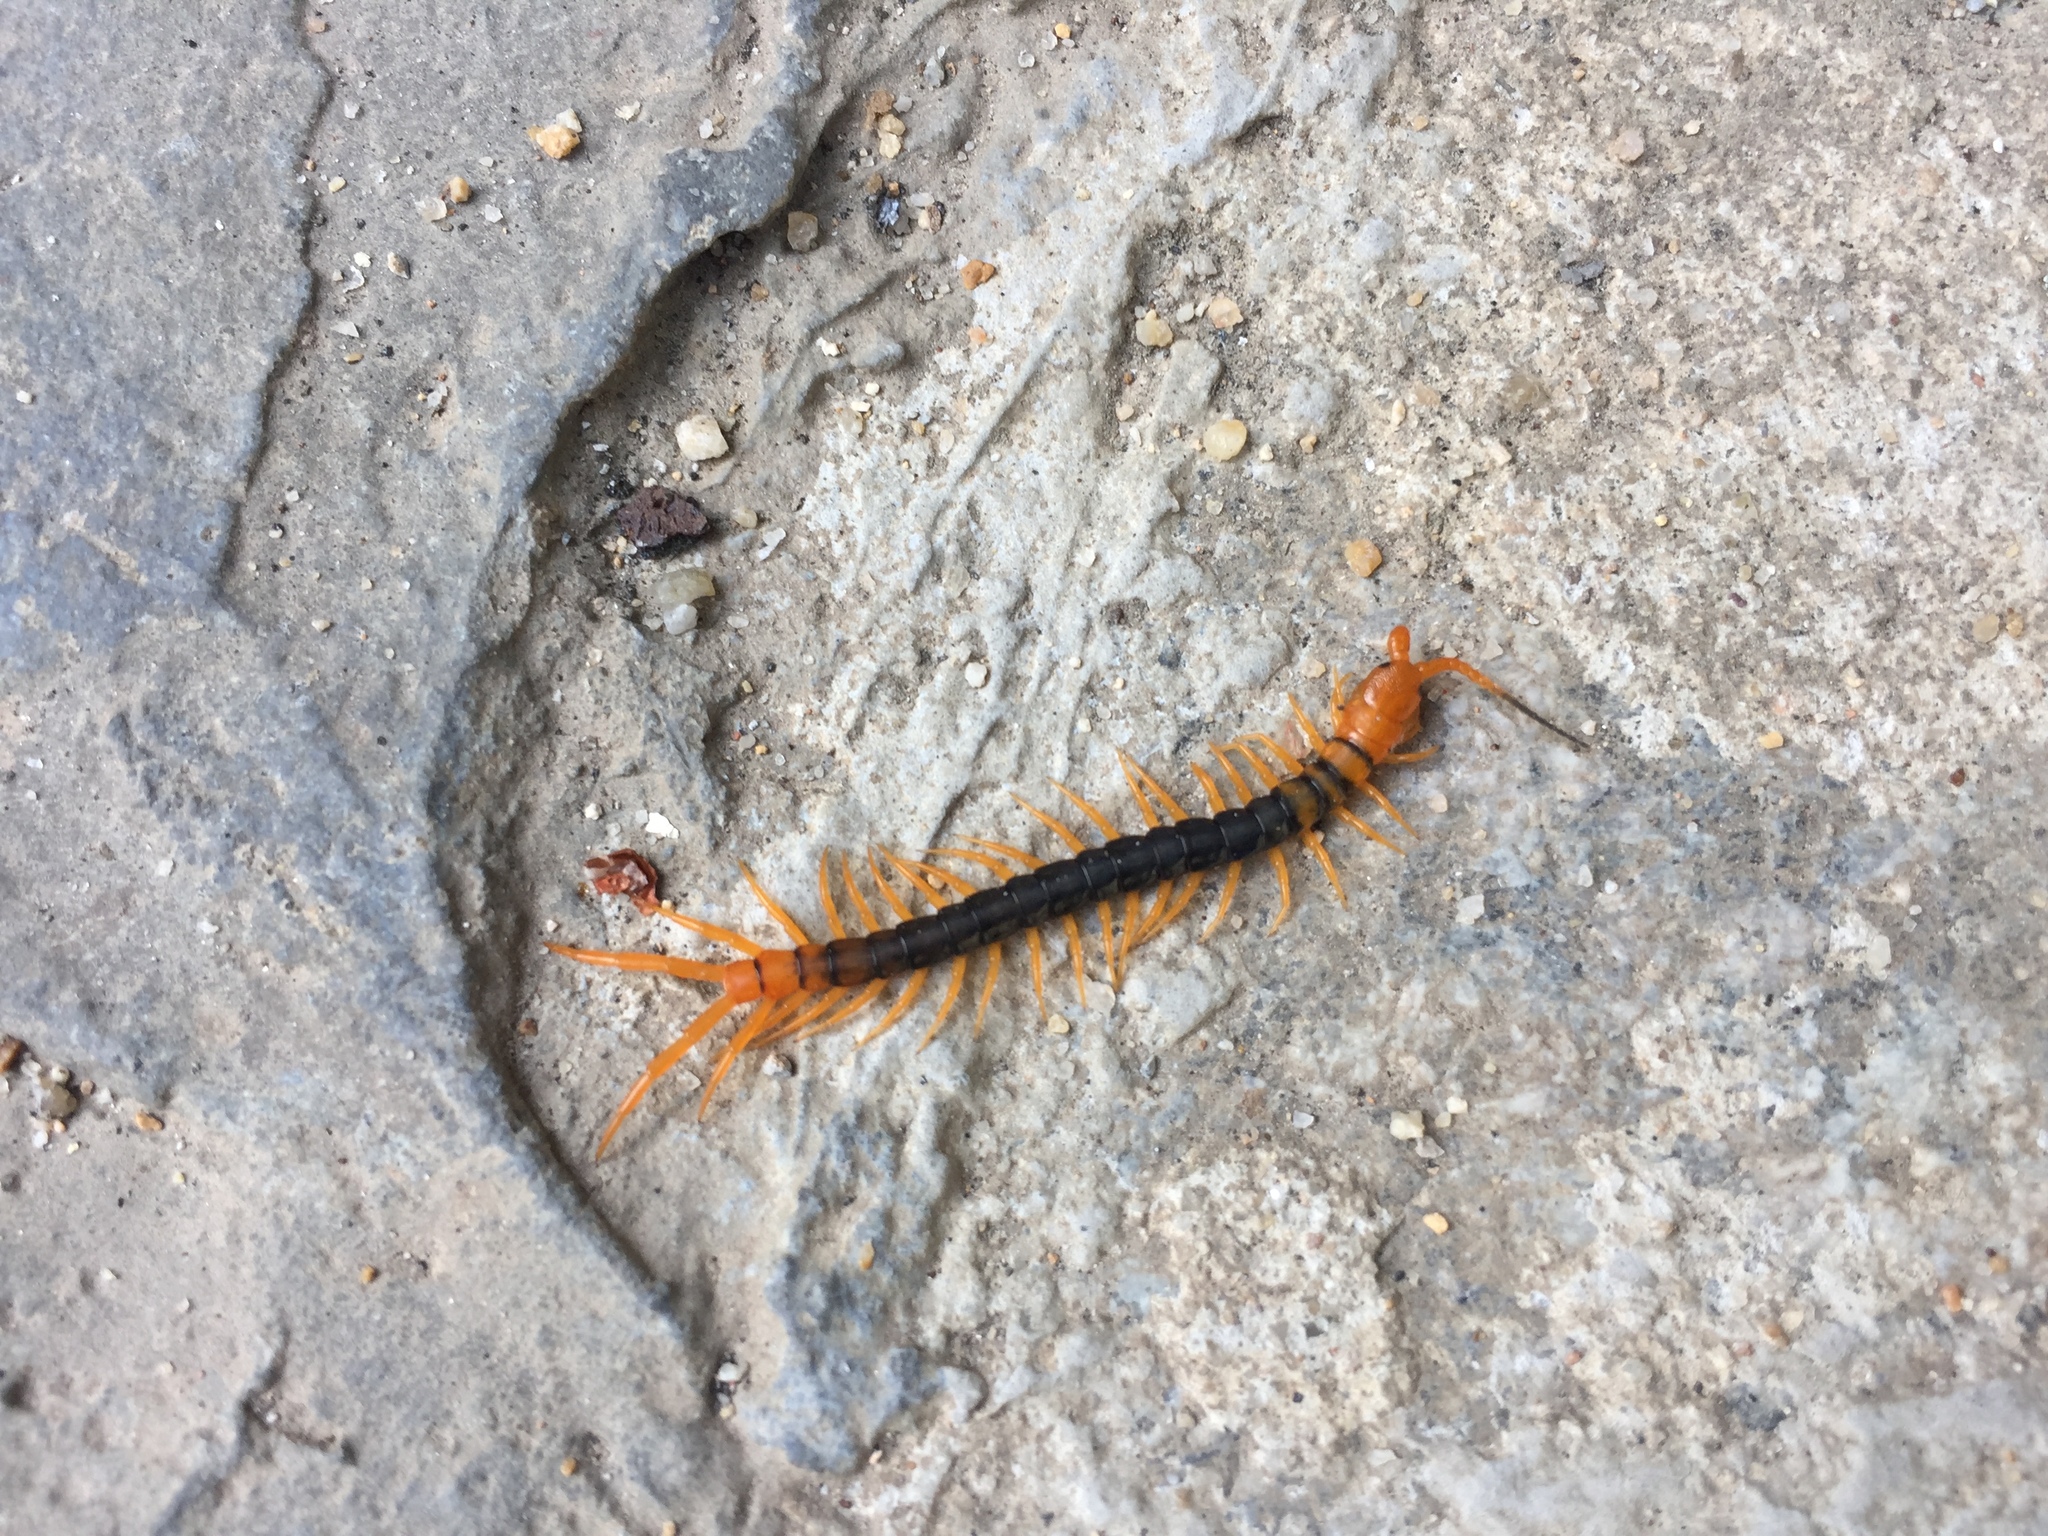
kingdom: Animalia
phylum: Arthropoda
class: Chilopoda
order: Scolopendromorpha
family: Scolopendridae
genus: Scolopendra
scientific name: Scolopendra multidens
